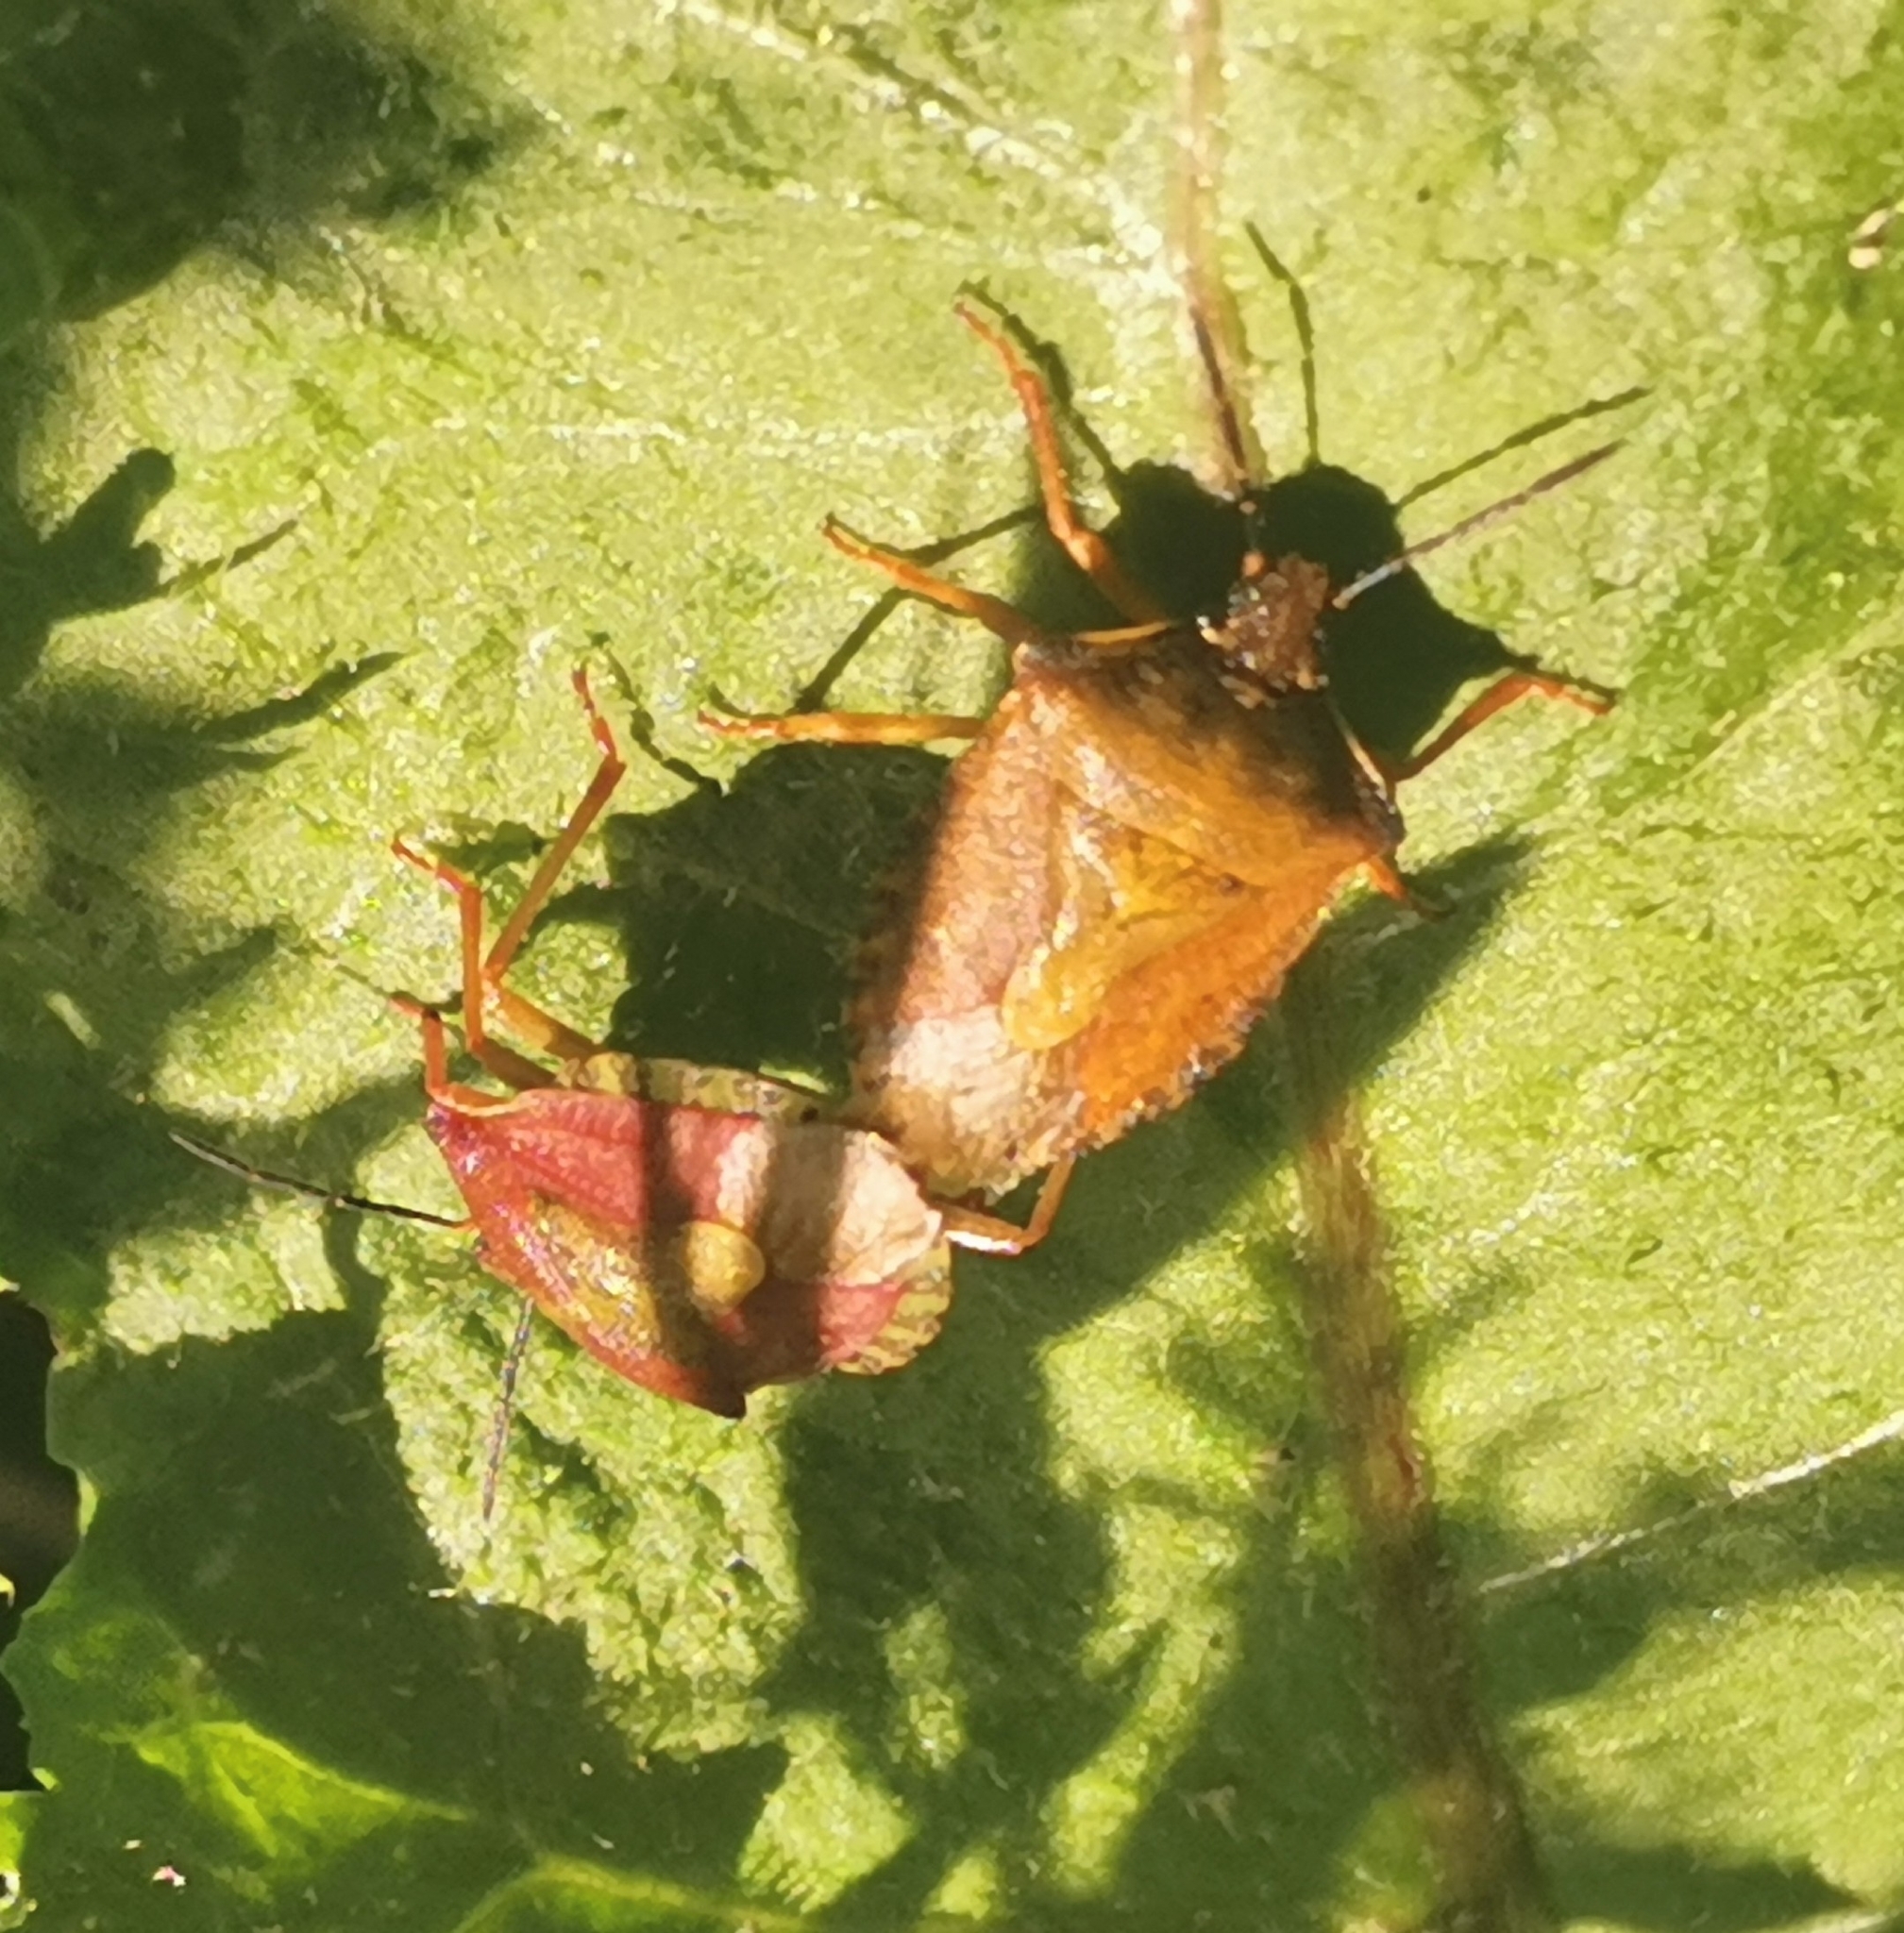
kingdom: Animalia
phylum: Arthropoda
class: Insecta
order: Hemiptera
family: Pentatomidae
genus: Carpocoris
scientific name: Carpocoris purpureipennis
